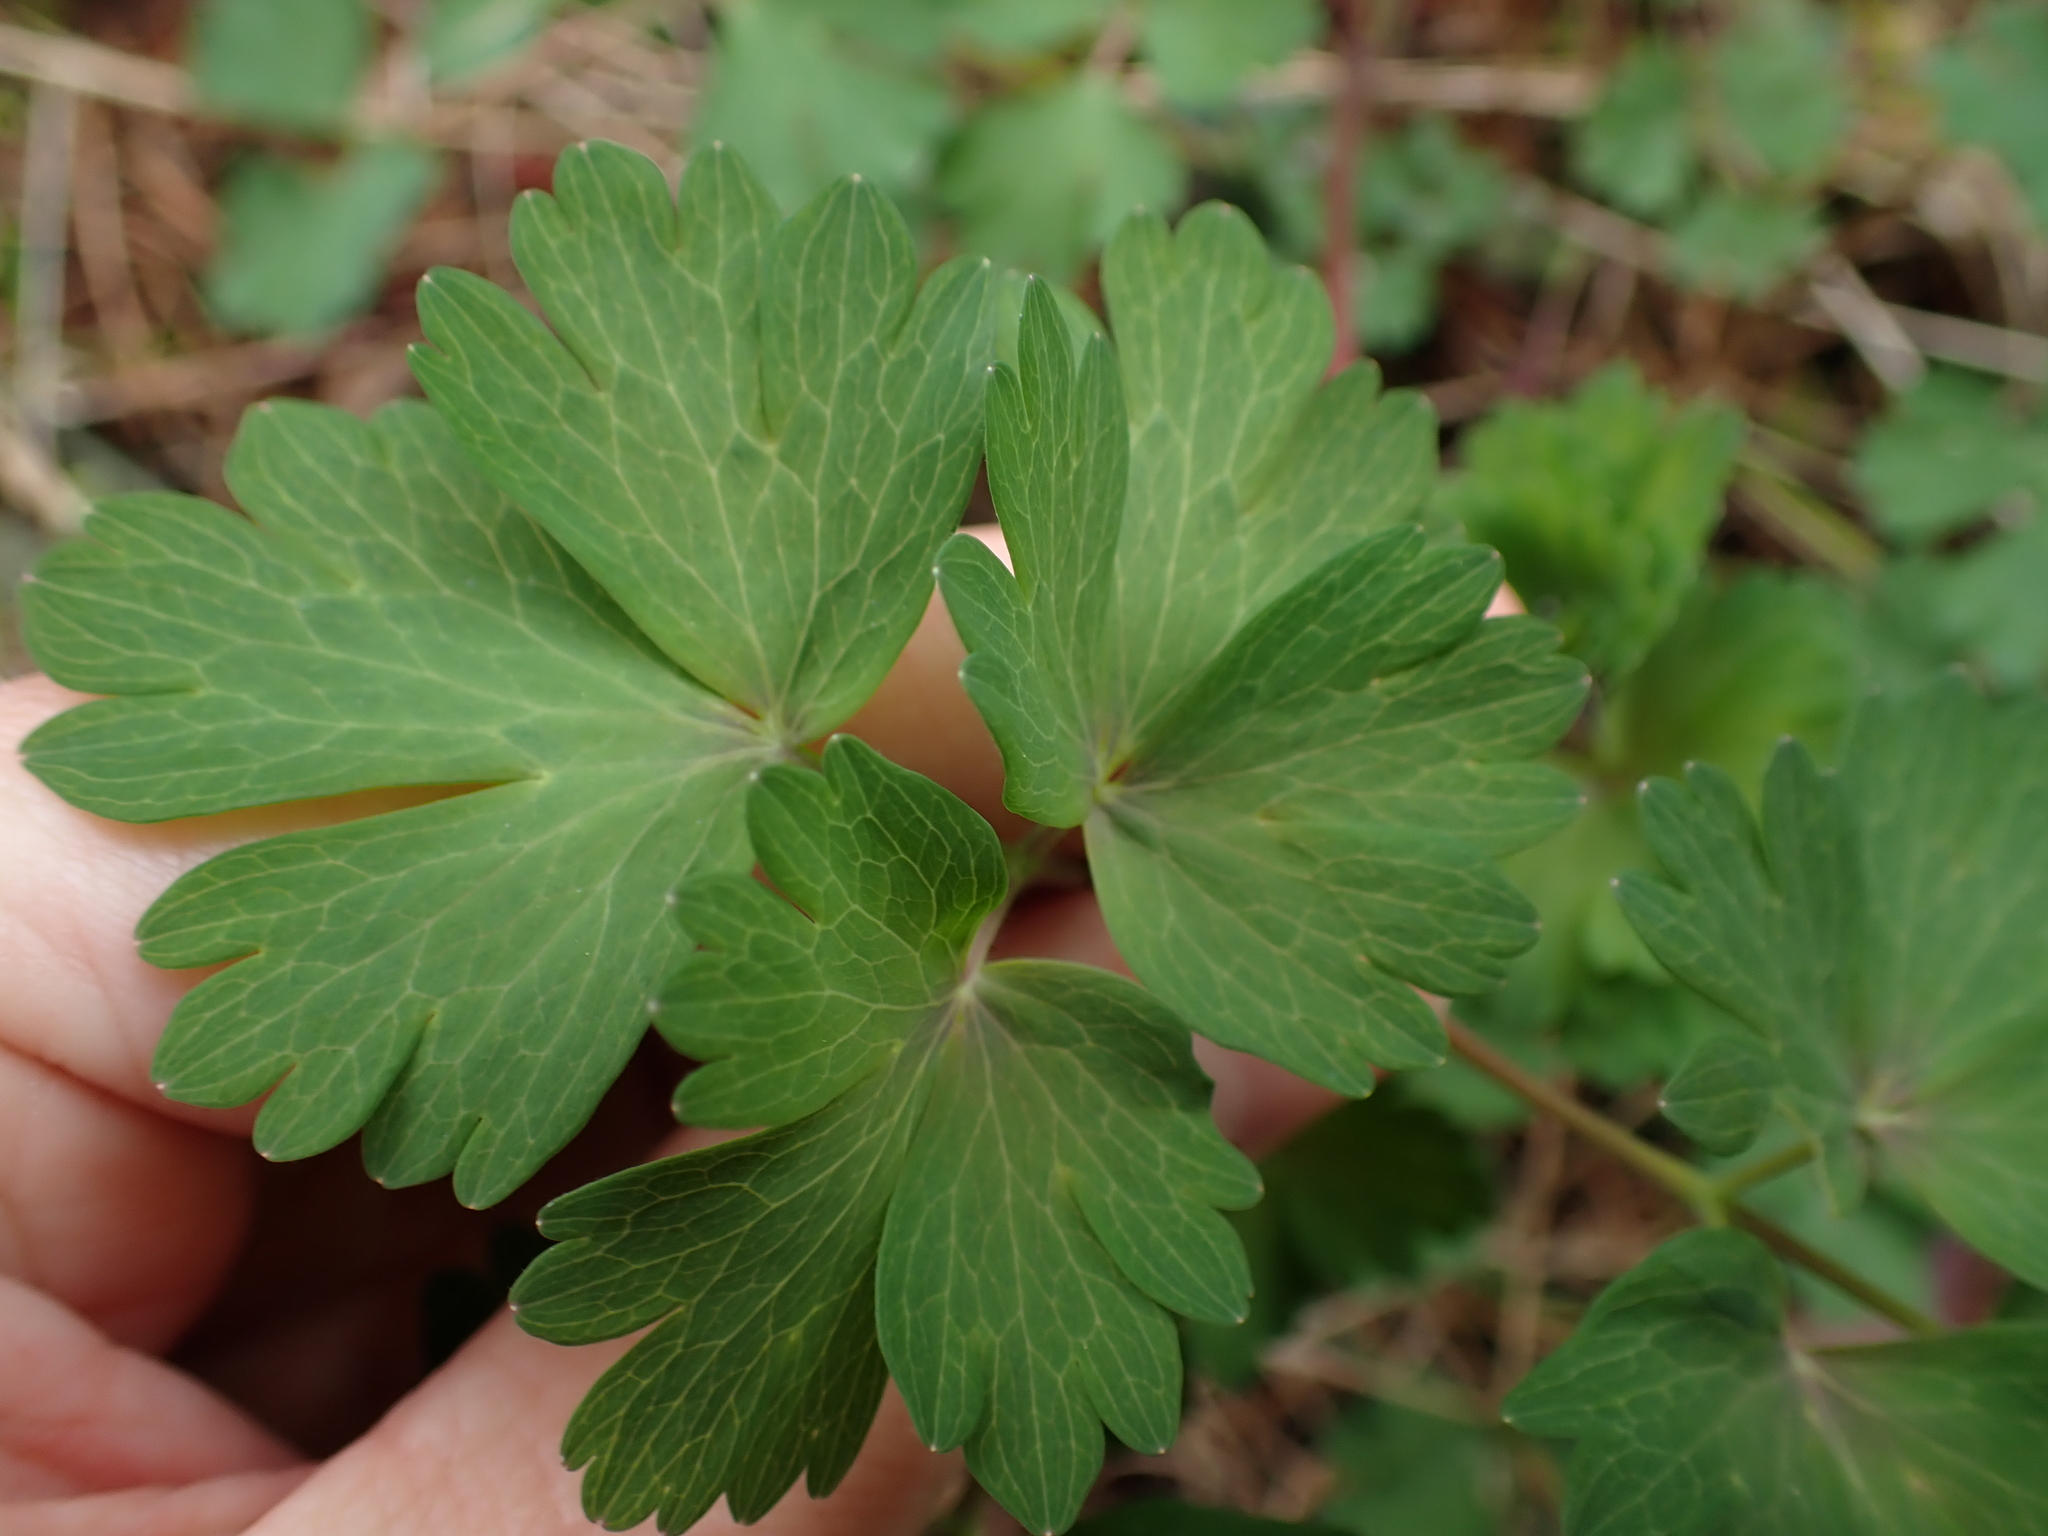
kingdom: Plantae
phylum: Tracheophyta
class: Magnoliopsida
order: Ranunculales
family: Ranunculaceae
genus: Aquilegia
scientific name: Aquilegia formosa
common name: Sitka columbine
